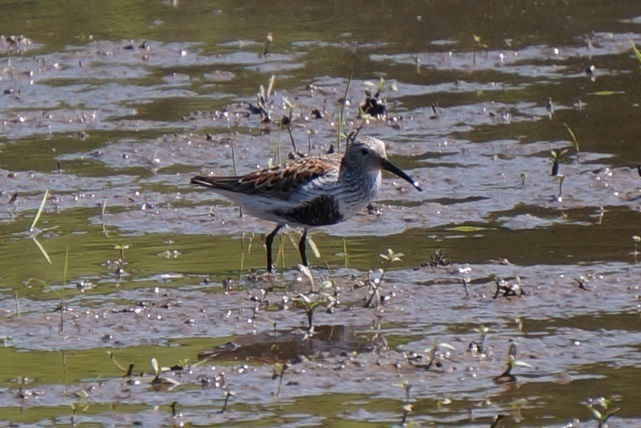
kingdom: Animalia
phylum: Chordata
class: Aves
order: Charadriiformes
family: Scolopacidae
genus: Calidris
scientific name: Calidris alpina
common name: Dunlin
